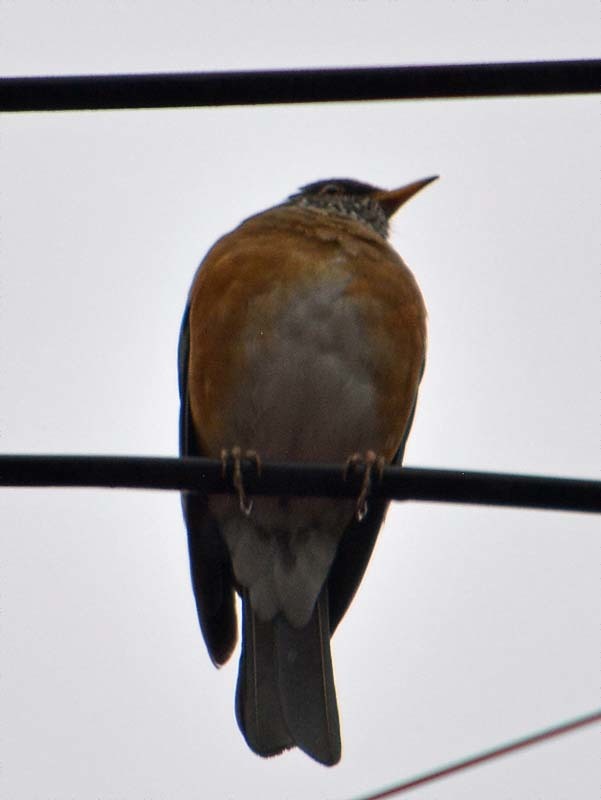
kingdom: Animalia
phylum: Chordata
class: Aves
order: Passeriformes
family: Turdidae
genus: Turdus
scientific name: Turdus rufopalliatus
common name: Rufous-backed robin
